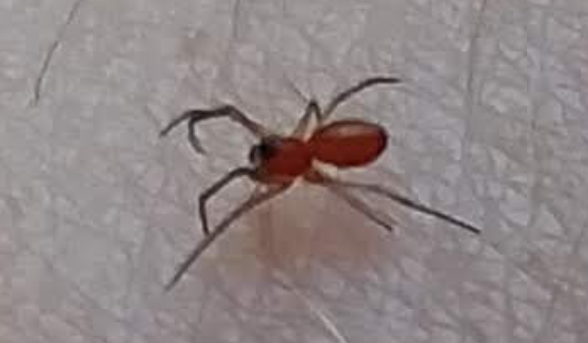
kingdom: Animalia
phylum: Arthropoda
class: Arachnida
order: Araneae
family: Linyphiidae
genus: Florinda
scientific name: Florinda coccinea
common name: Black-tailed red sheetweaver
